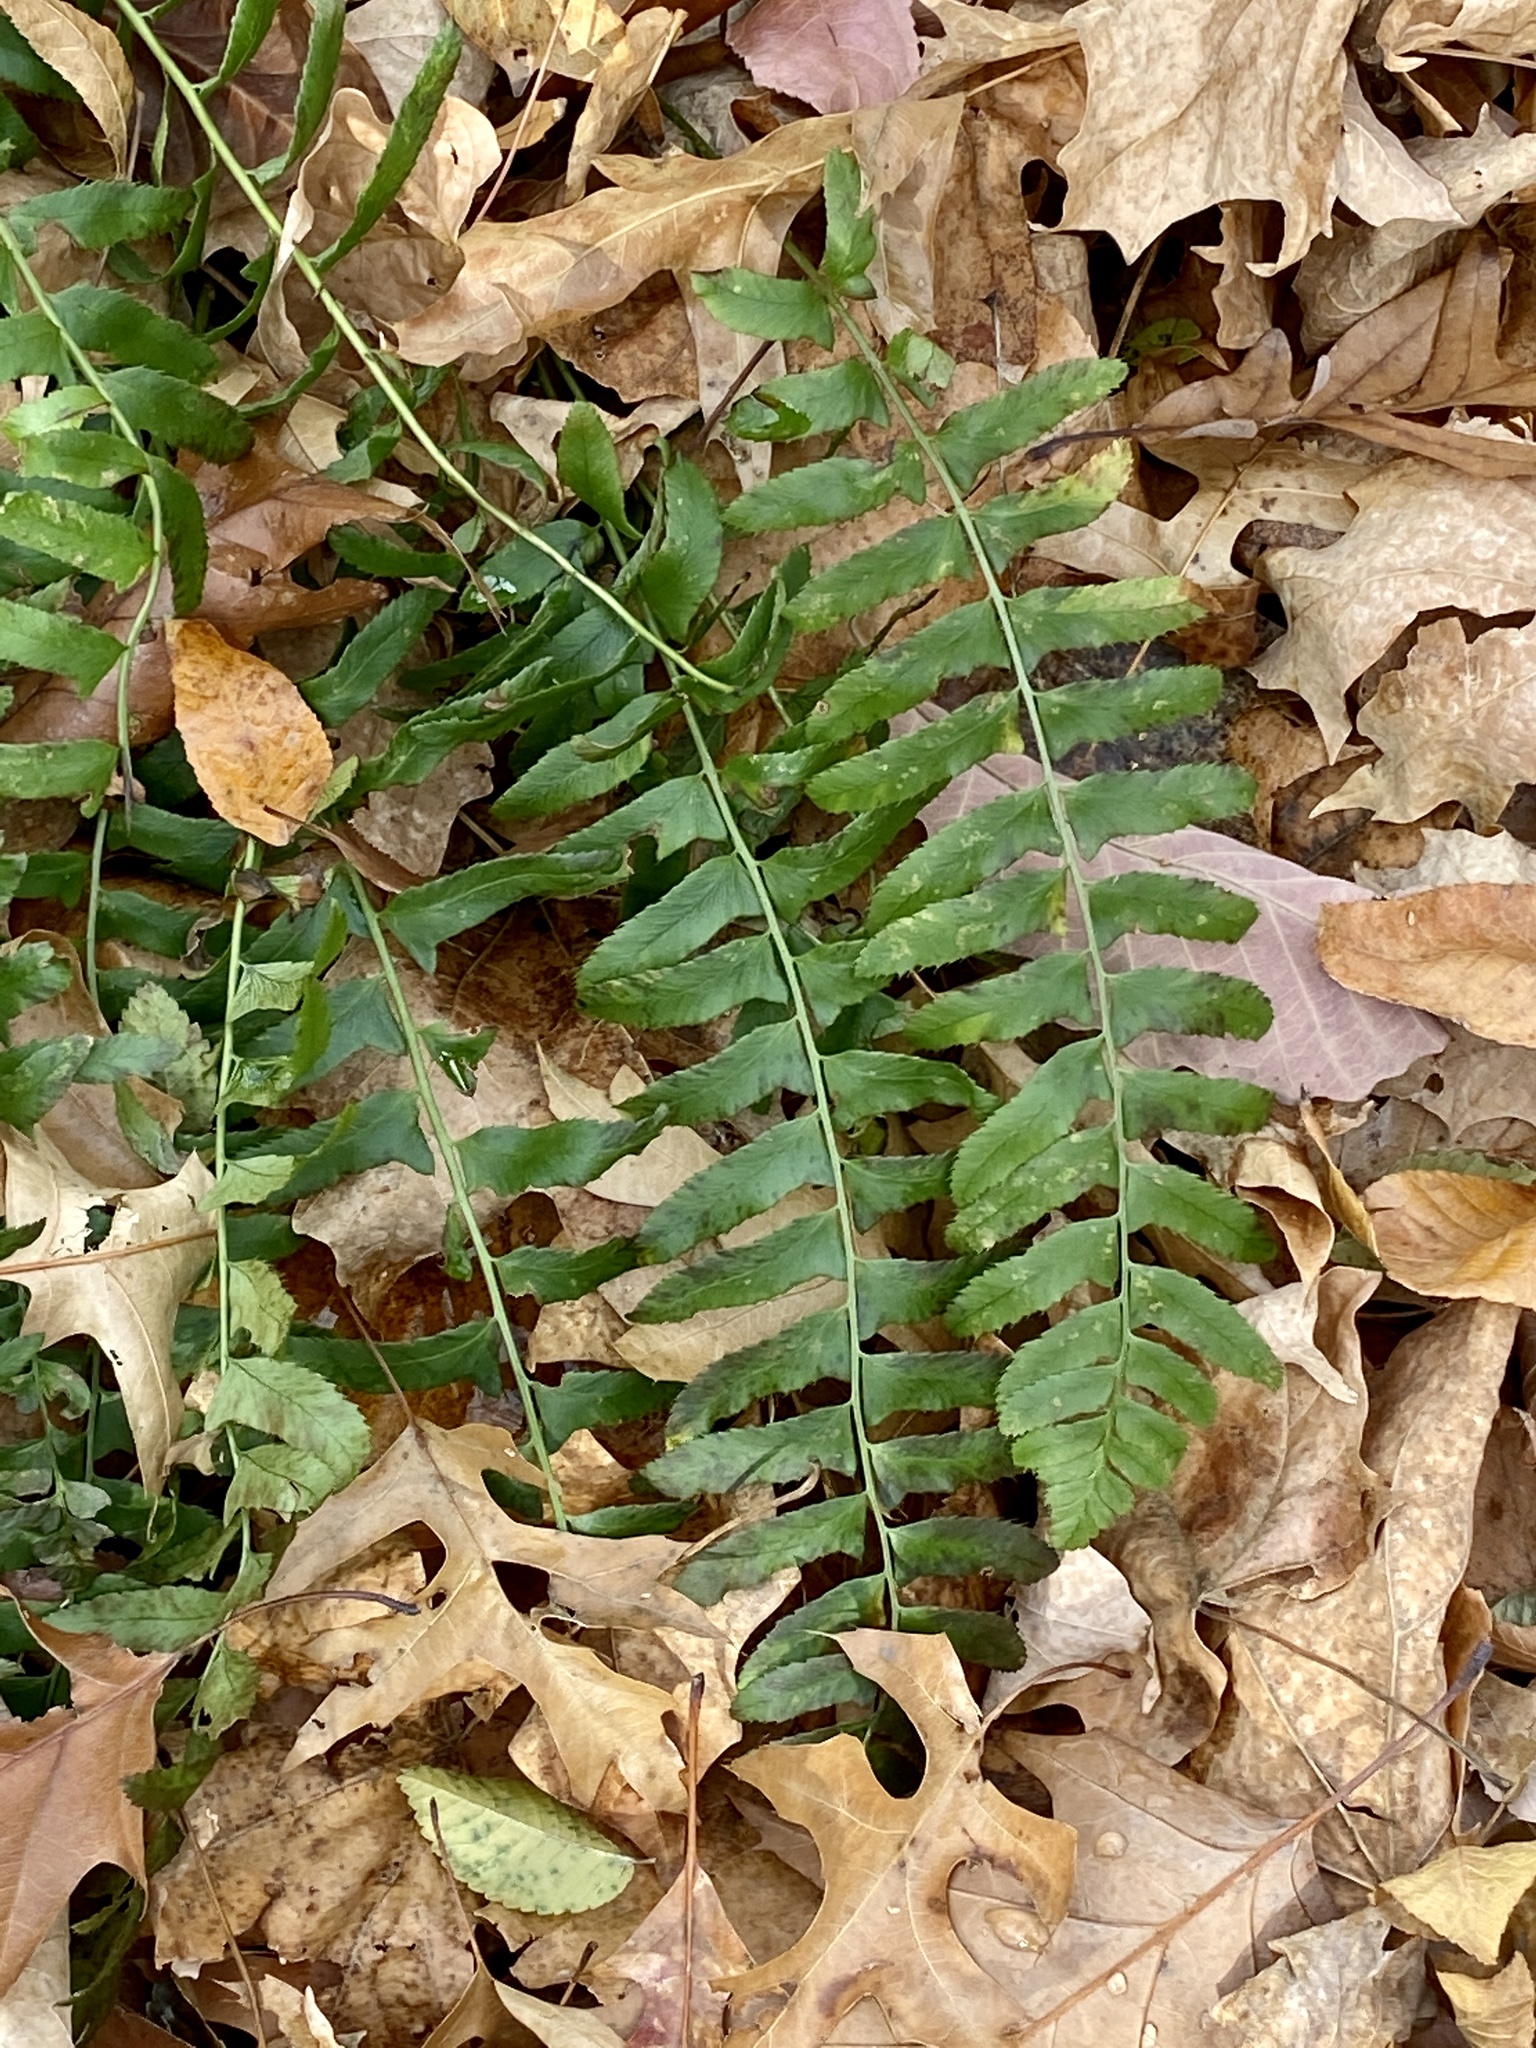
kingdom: Plantae
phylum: Tracheophyta
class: Polypodiopsida
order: Polypodiales
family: Dryopteridaceae
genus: Polystichum
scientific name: Polystichum acrostichoides
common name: Christmas fern
